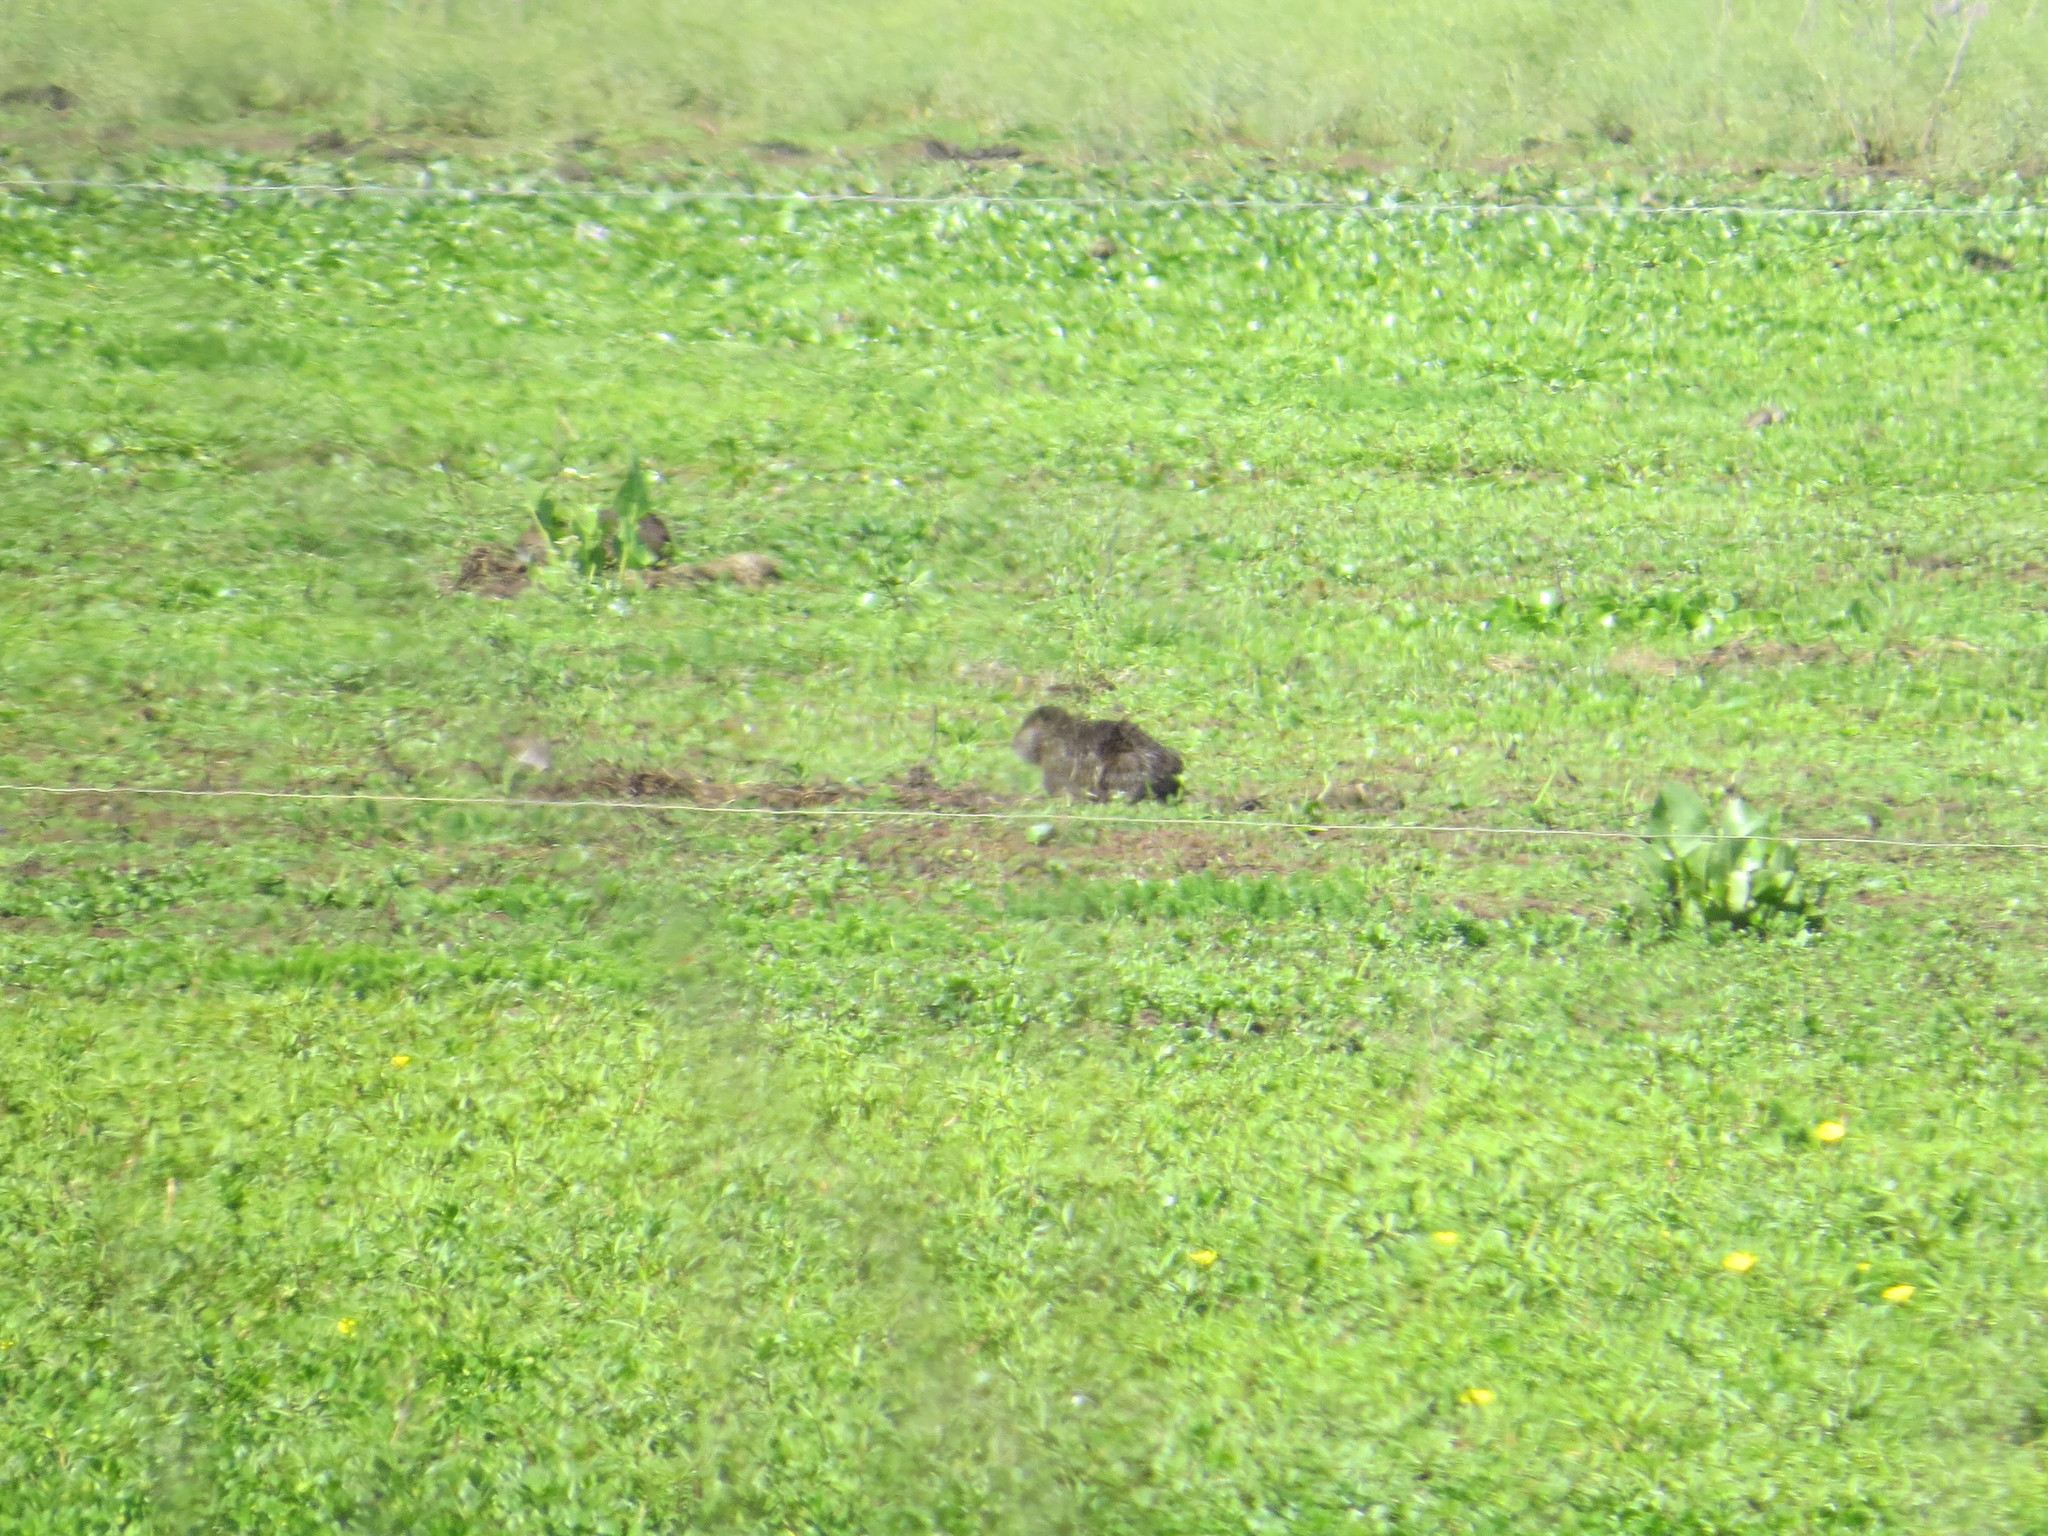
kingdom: Animalia
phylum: Chordata
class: Mammalia
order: Rodentia
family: Myocastoridae
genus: Myocastor
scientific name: Myocastor coypus
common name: Coypu
